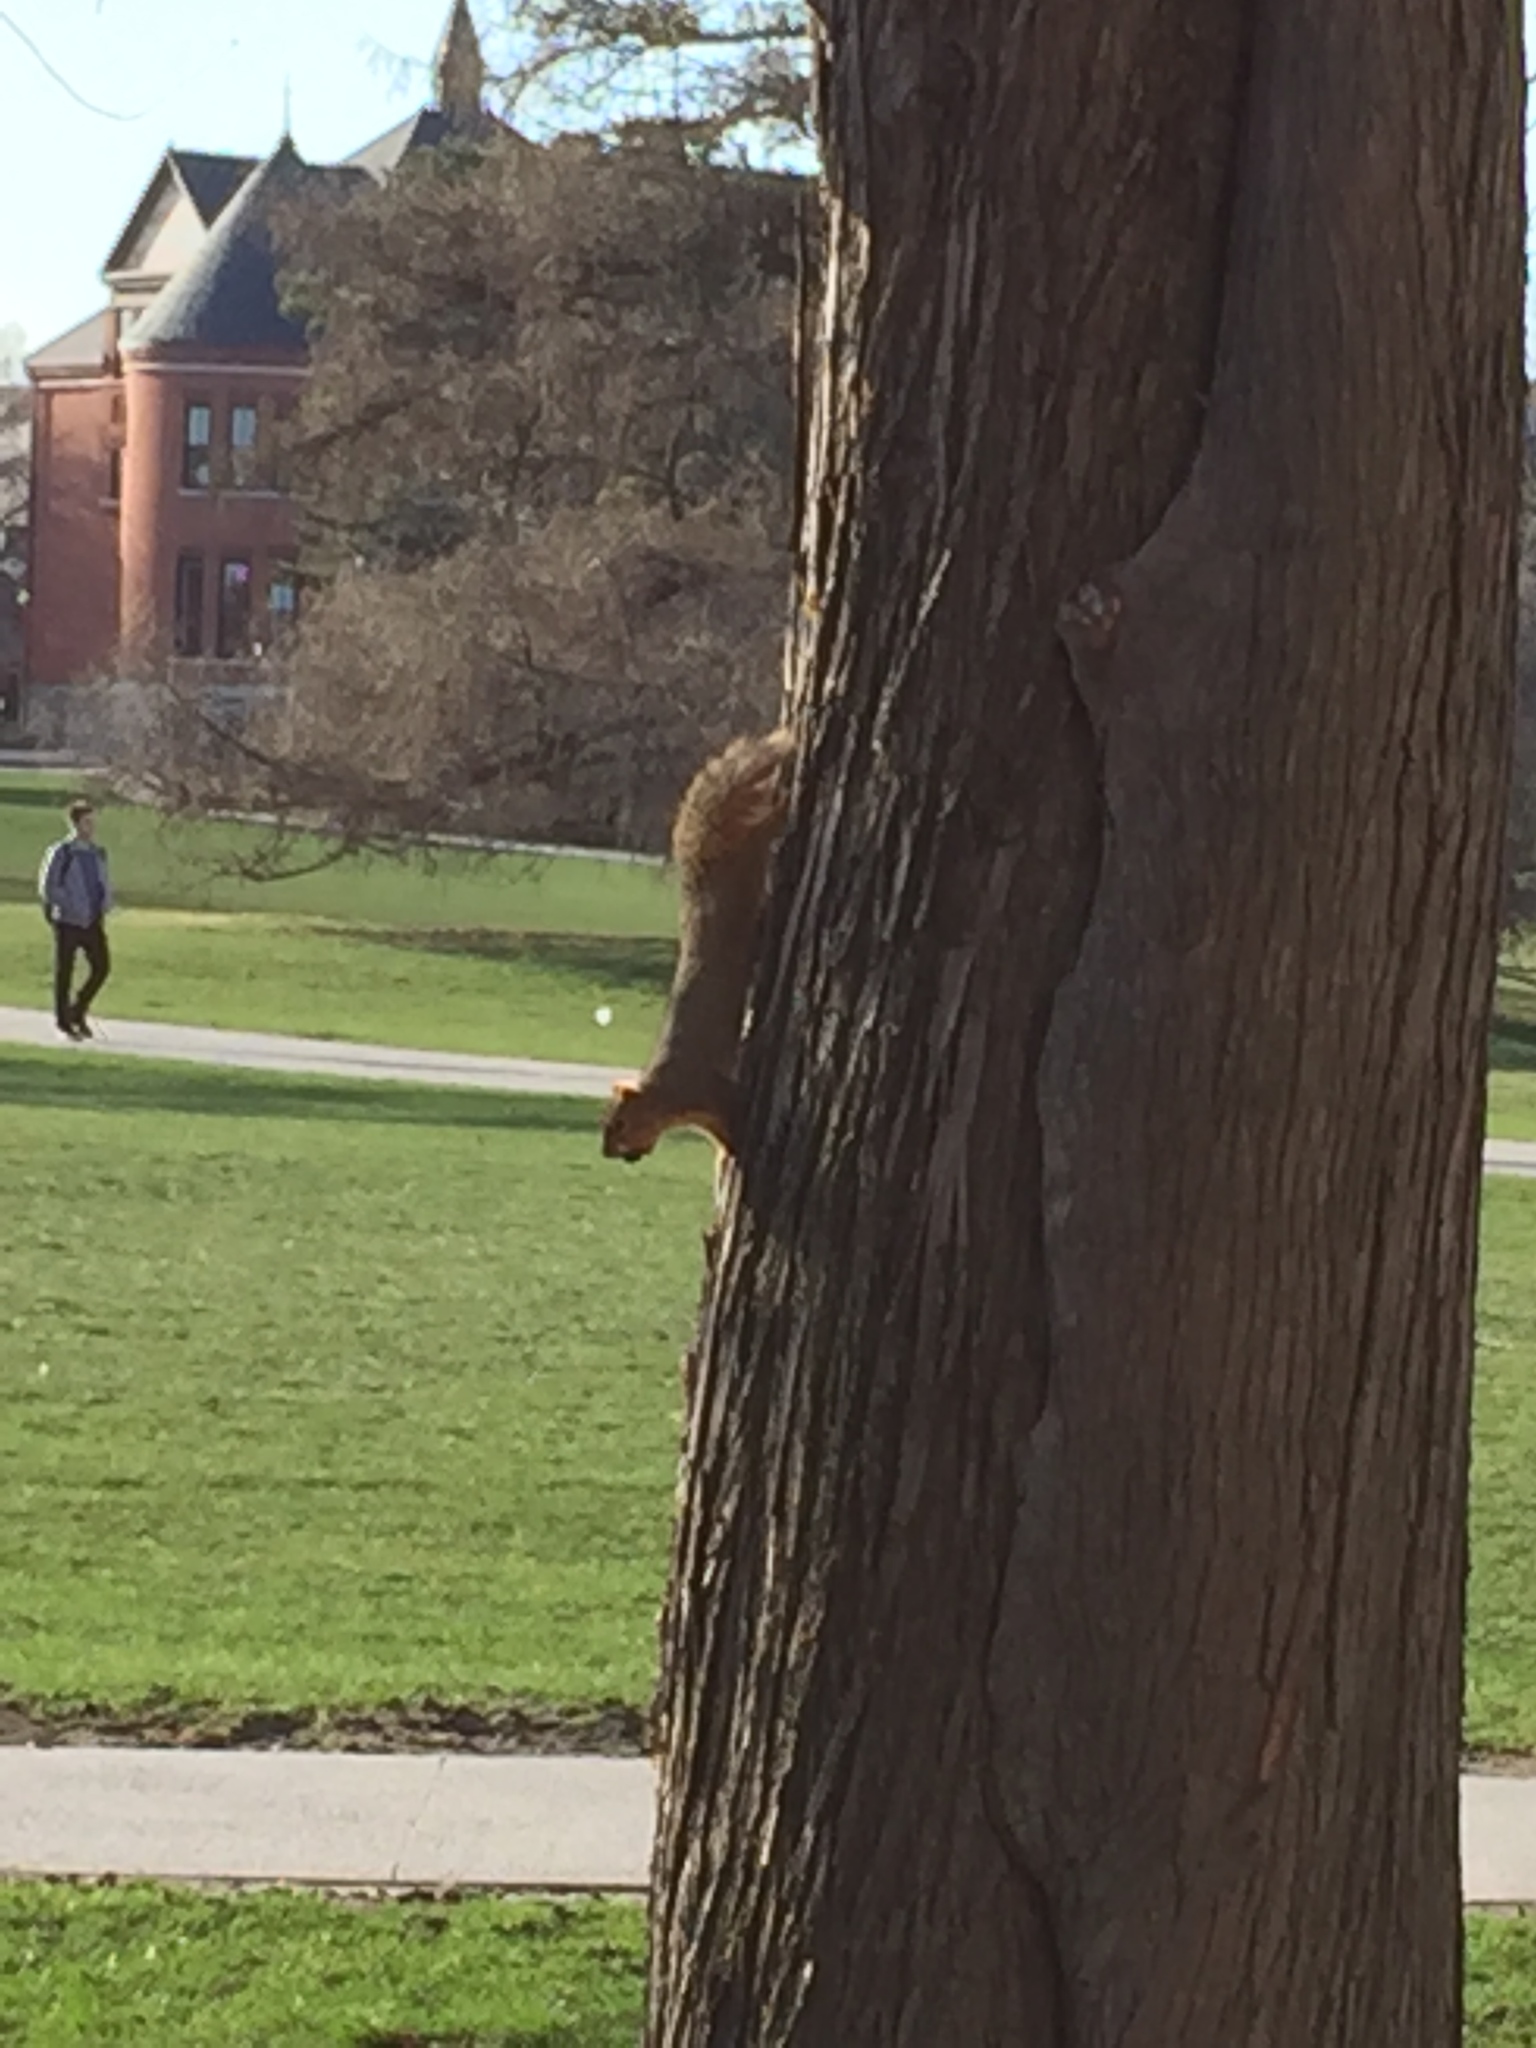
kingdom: Animalia
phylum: Chordata
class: Mammalia
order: Rodentia
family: Sciuridae
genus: Sciurus
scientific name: Sciurus niger
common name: Fox squirrel
